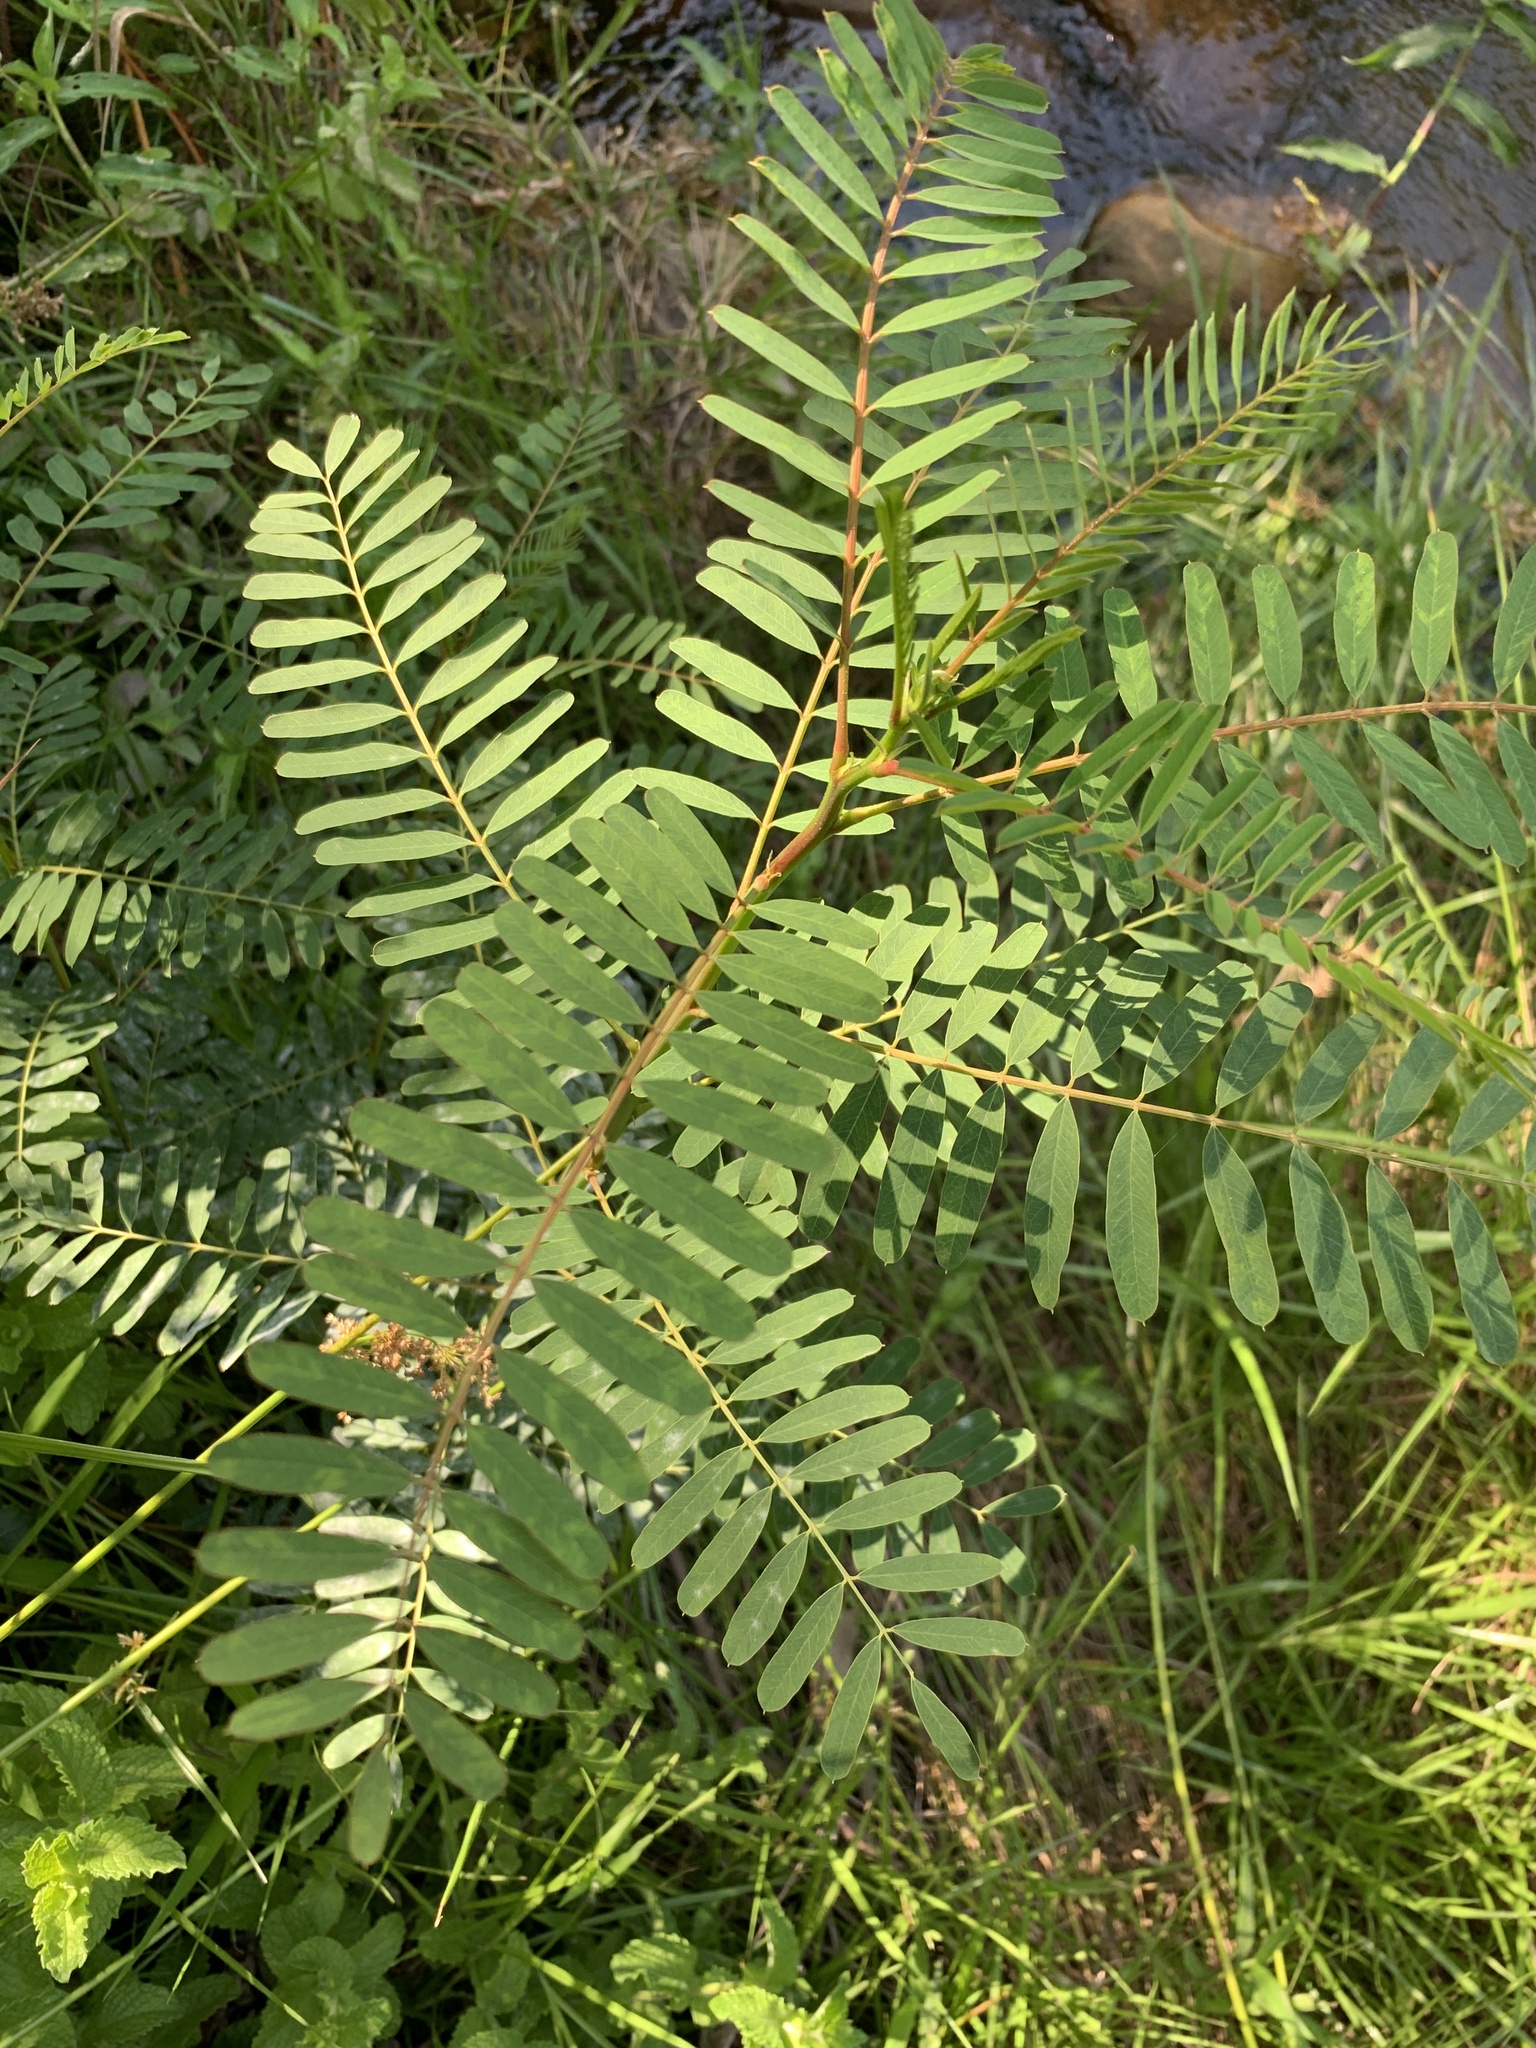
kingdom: Plantae
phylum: Tracheophyta
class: Magnoliopsida
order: Fabales
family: Fabaceae
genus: Sesbania
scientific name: Sesbania punicea
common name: Rattlebox
